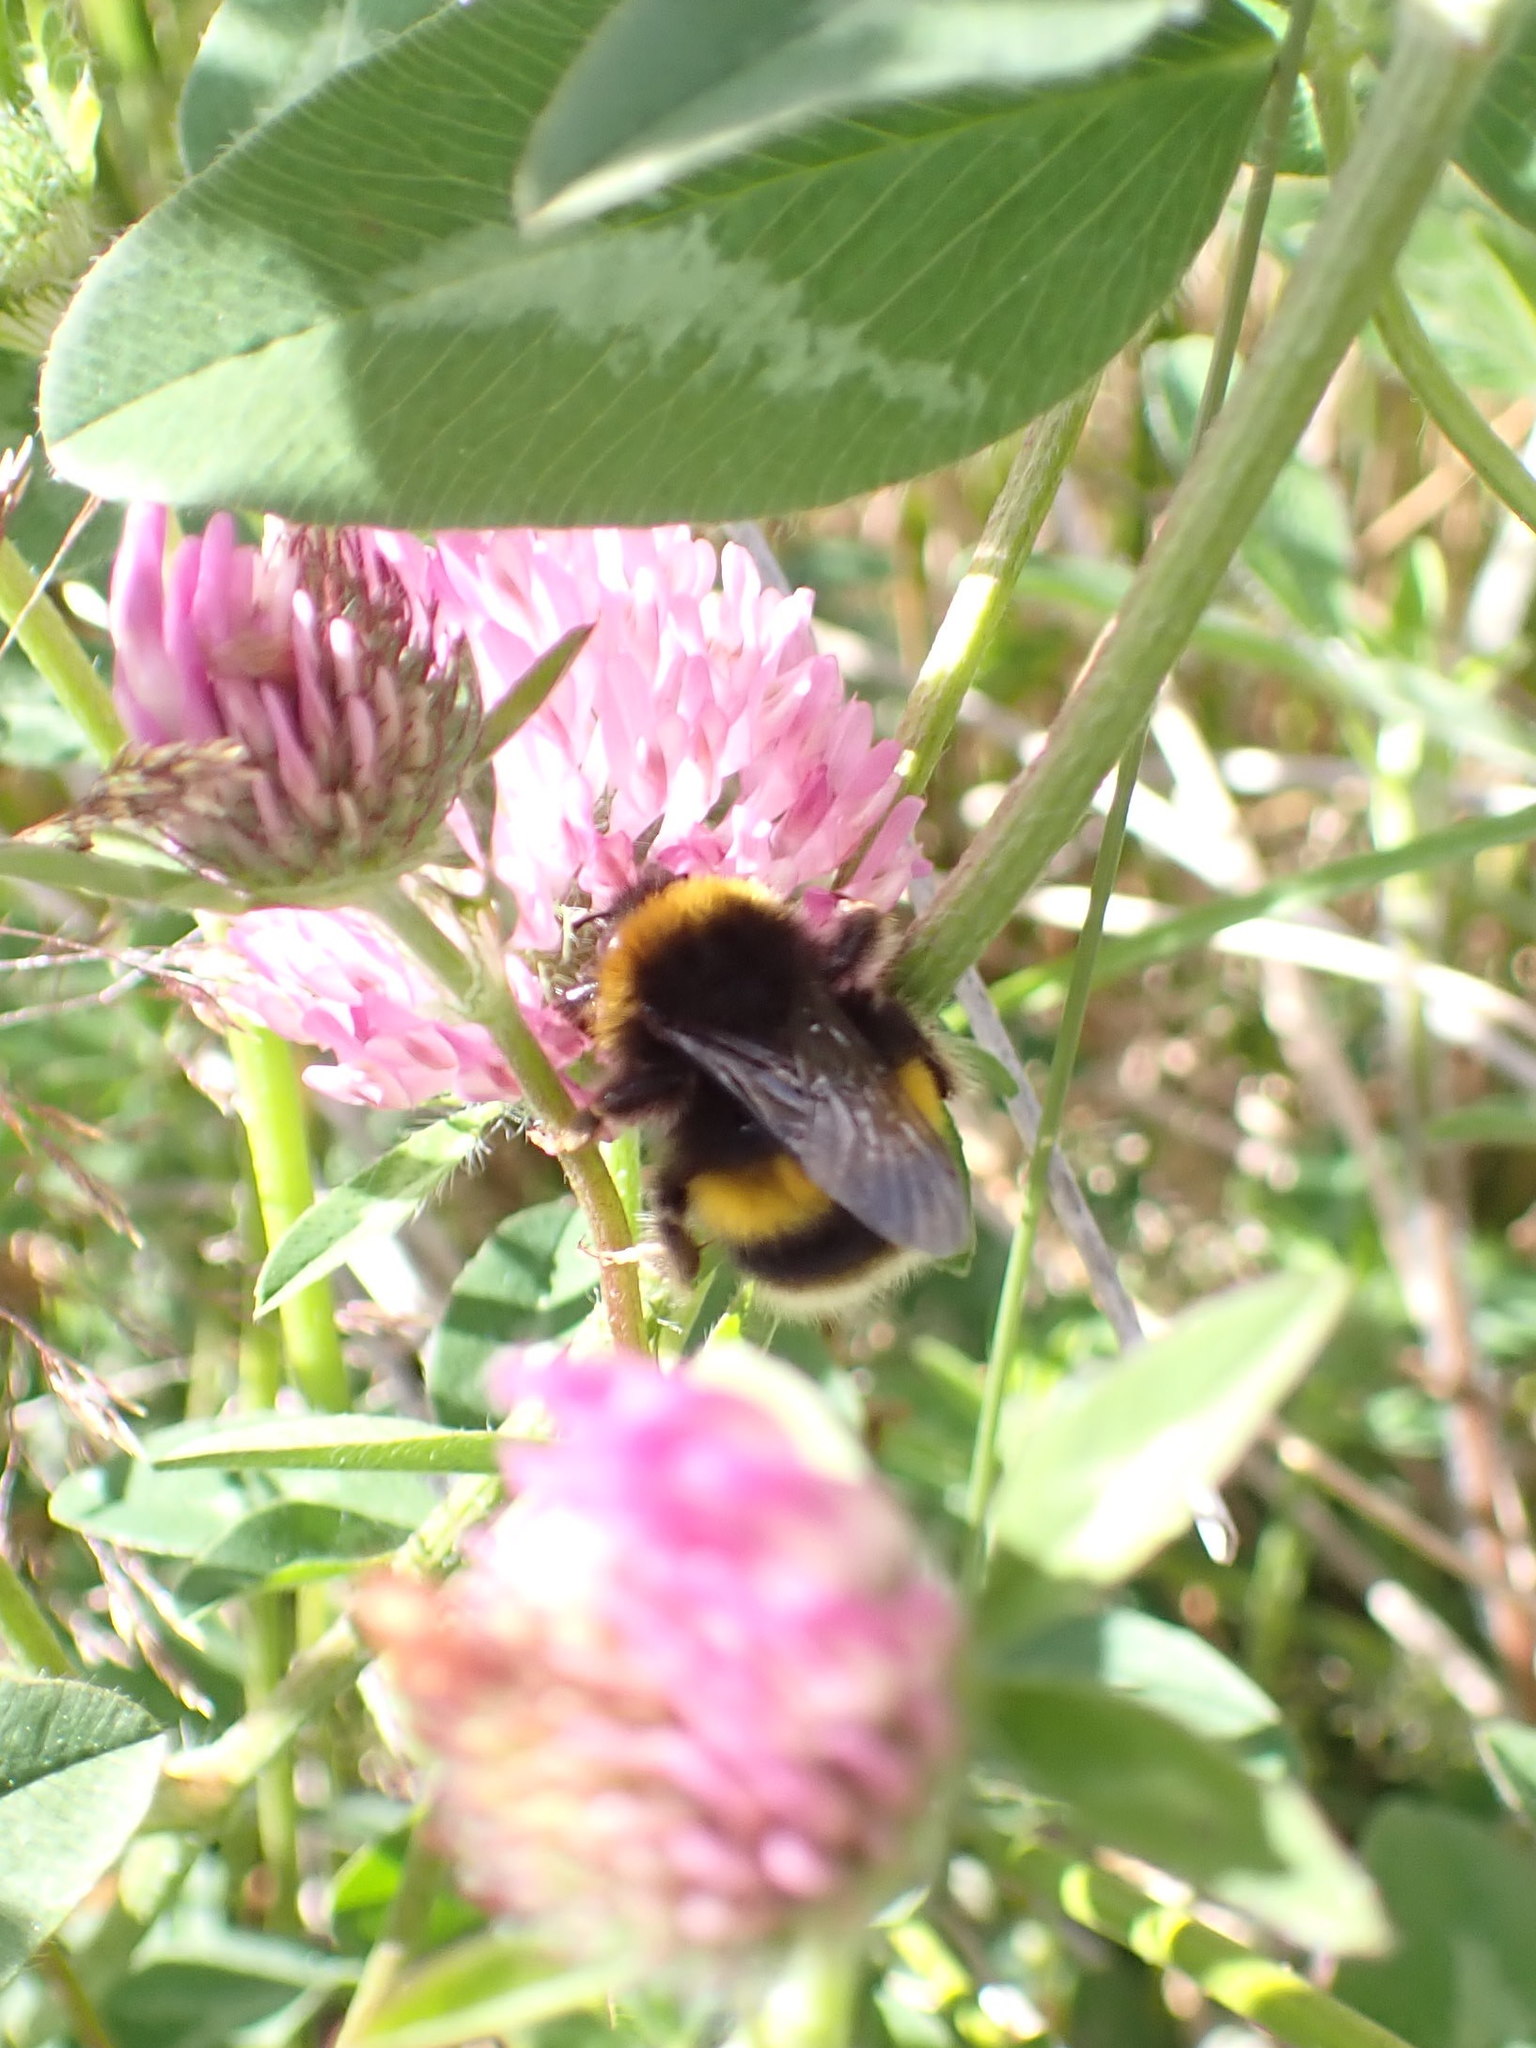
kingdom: Animalia
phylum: Arthropoda
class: Insecta
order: Hymenoptera
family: Apidae
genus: Bombus
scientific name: Bombus terrestris
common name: Buff-tailed bumblebee
